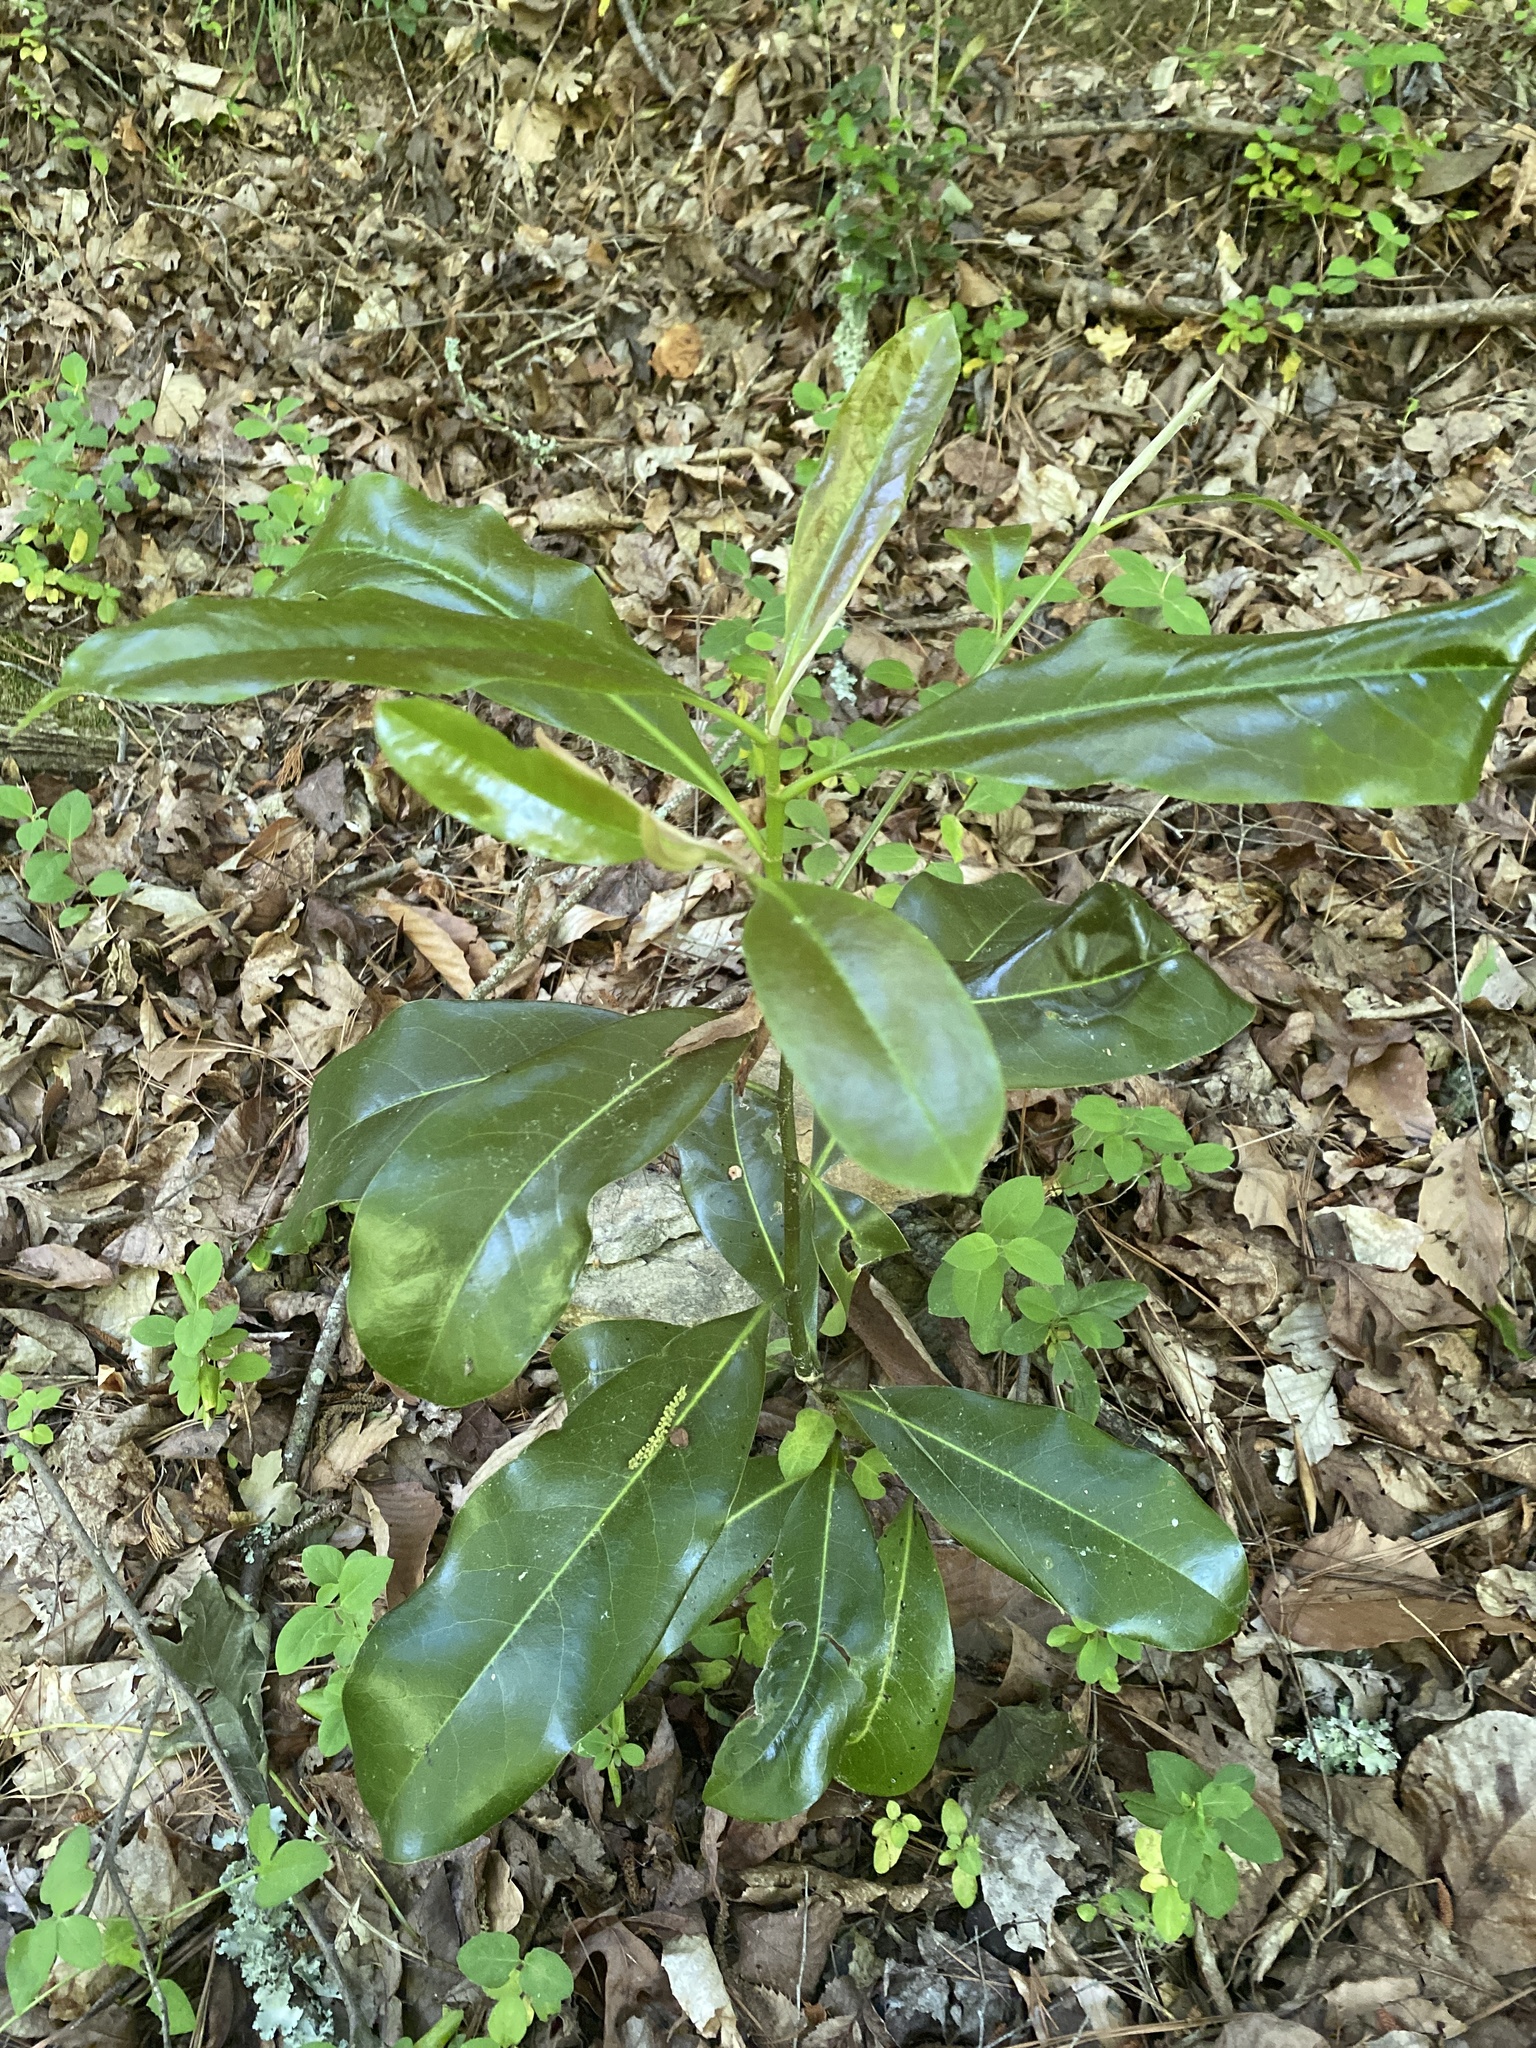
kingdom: Plantae
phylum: Tracheophyta
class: Magnoliopsida
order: Magnoliales
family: Magnoliaceae
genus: Magnolia
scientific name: Magnolia grandiflora
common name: Southern magnolia
